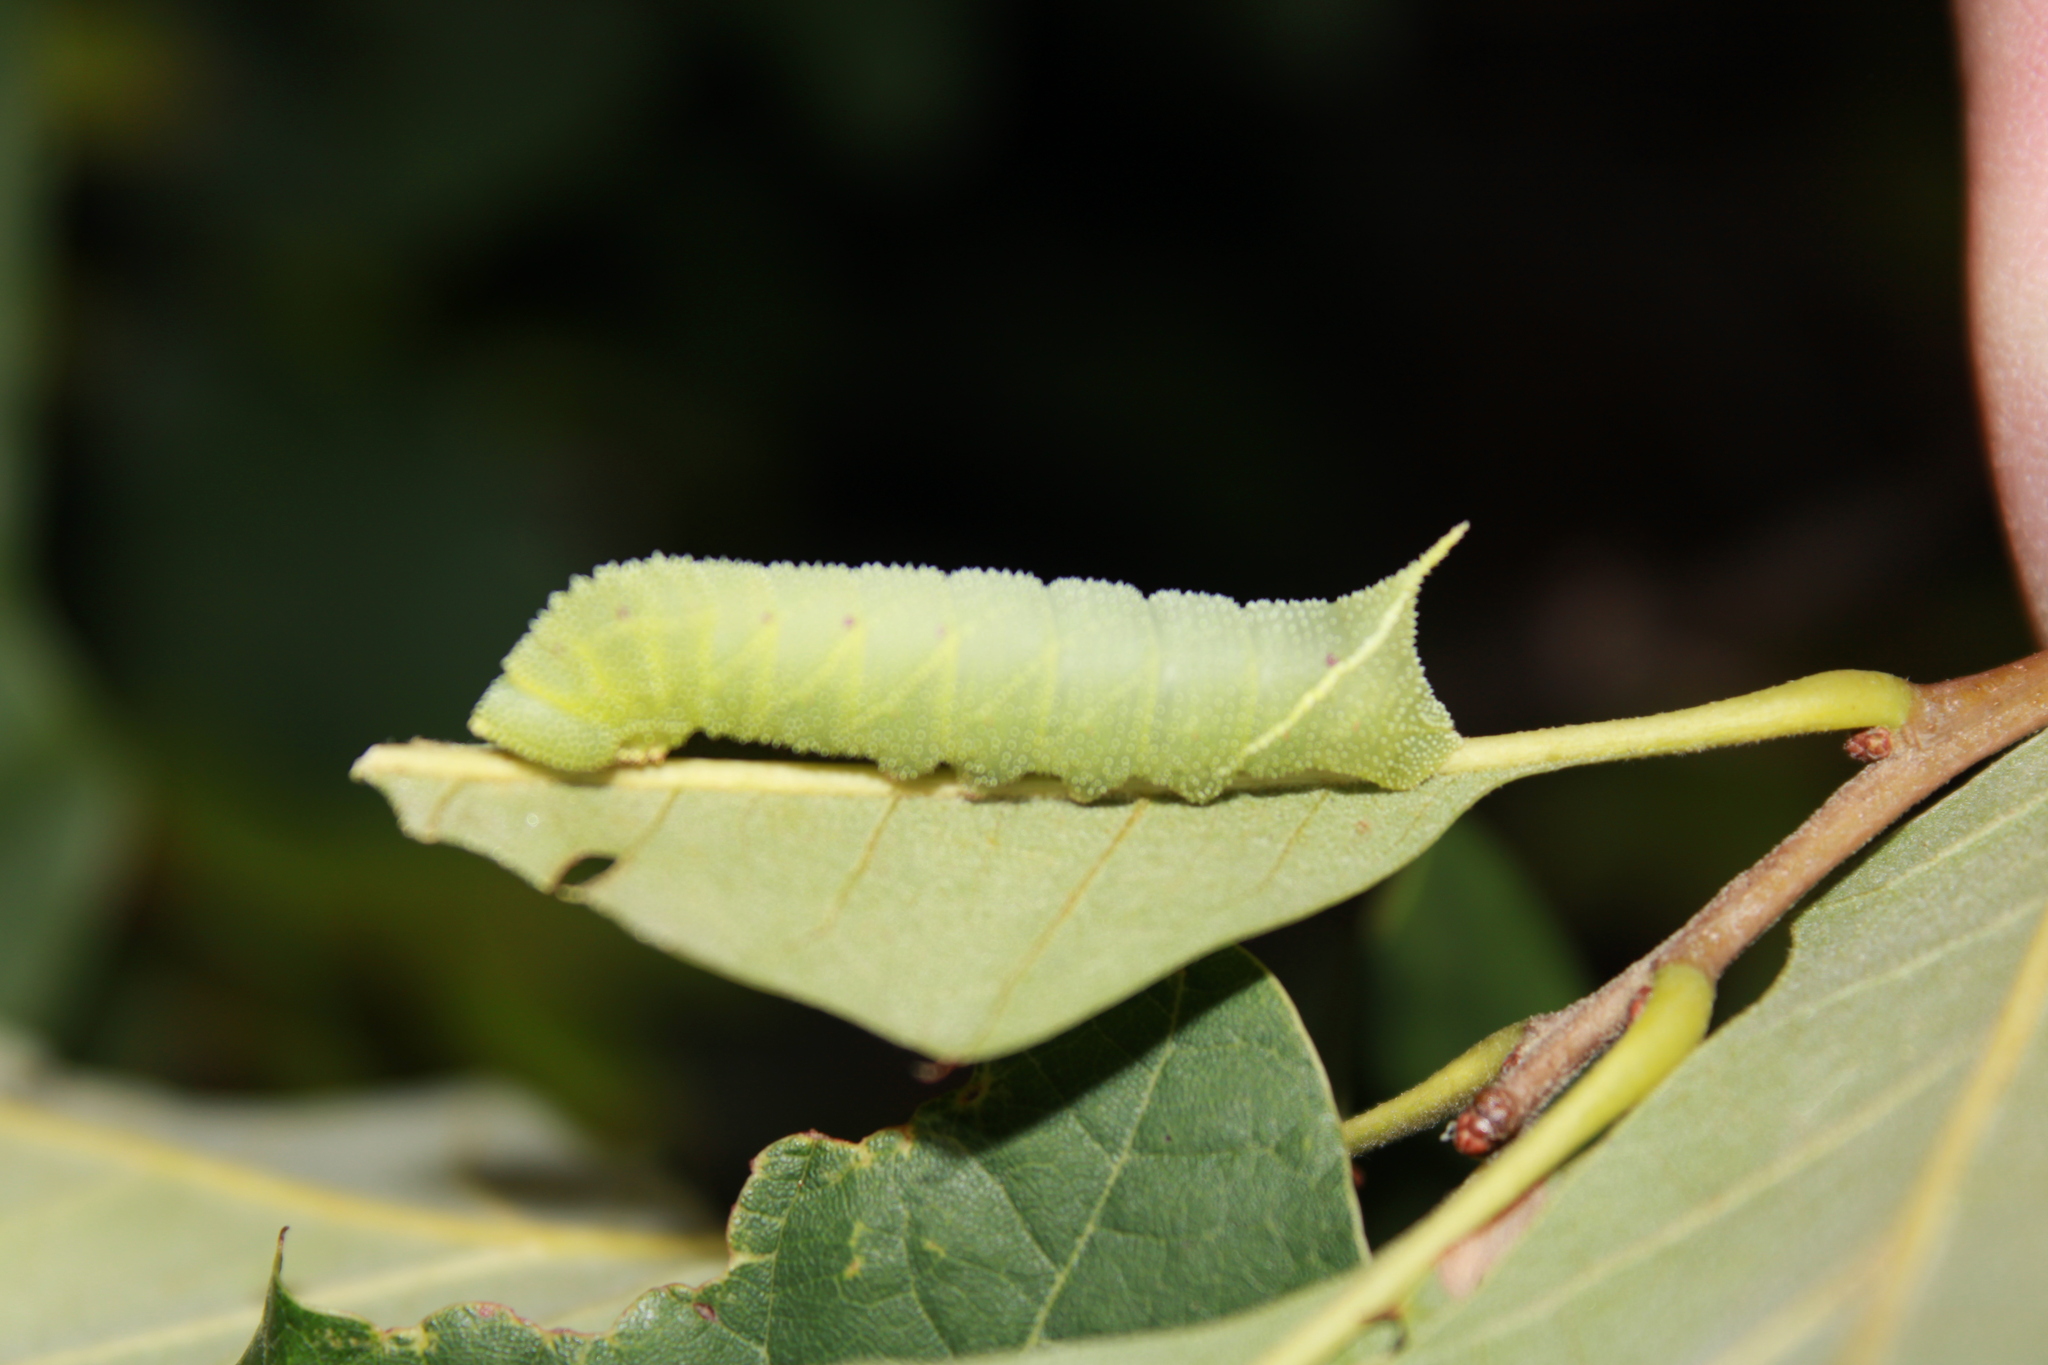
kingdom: Animalia
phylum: Arthropoda
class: Insecta
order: Lepidoptera
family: Sphingidae
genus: Paonias
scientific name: Paonias excaecata
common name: Blind-eyed sphinx
